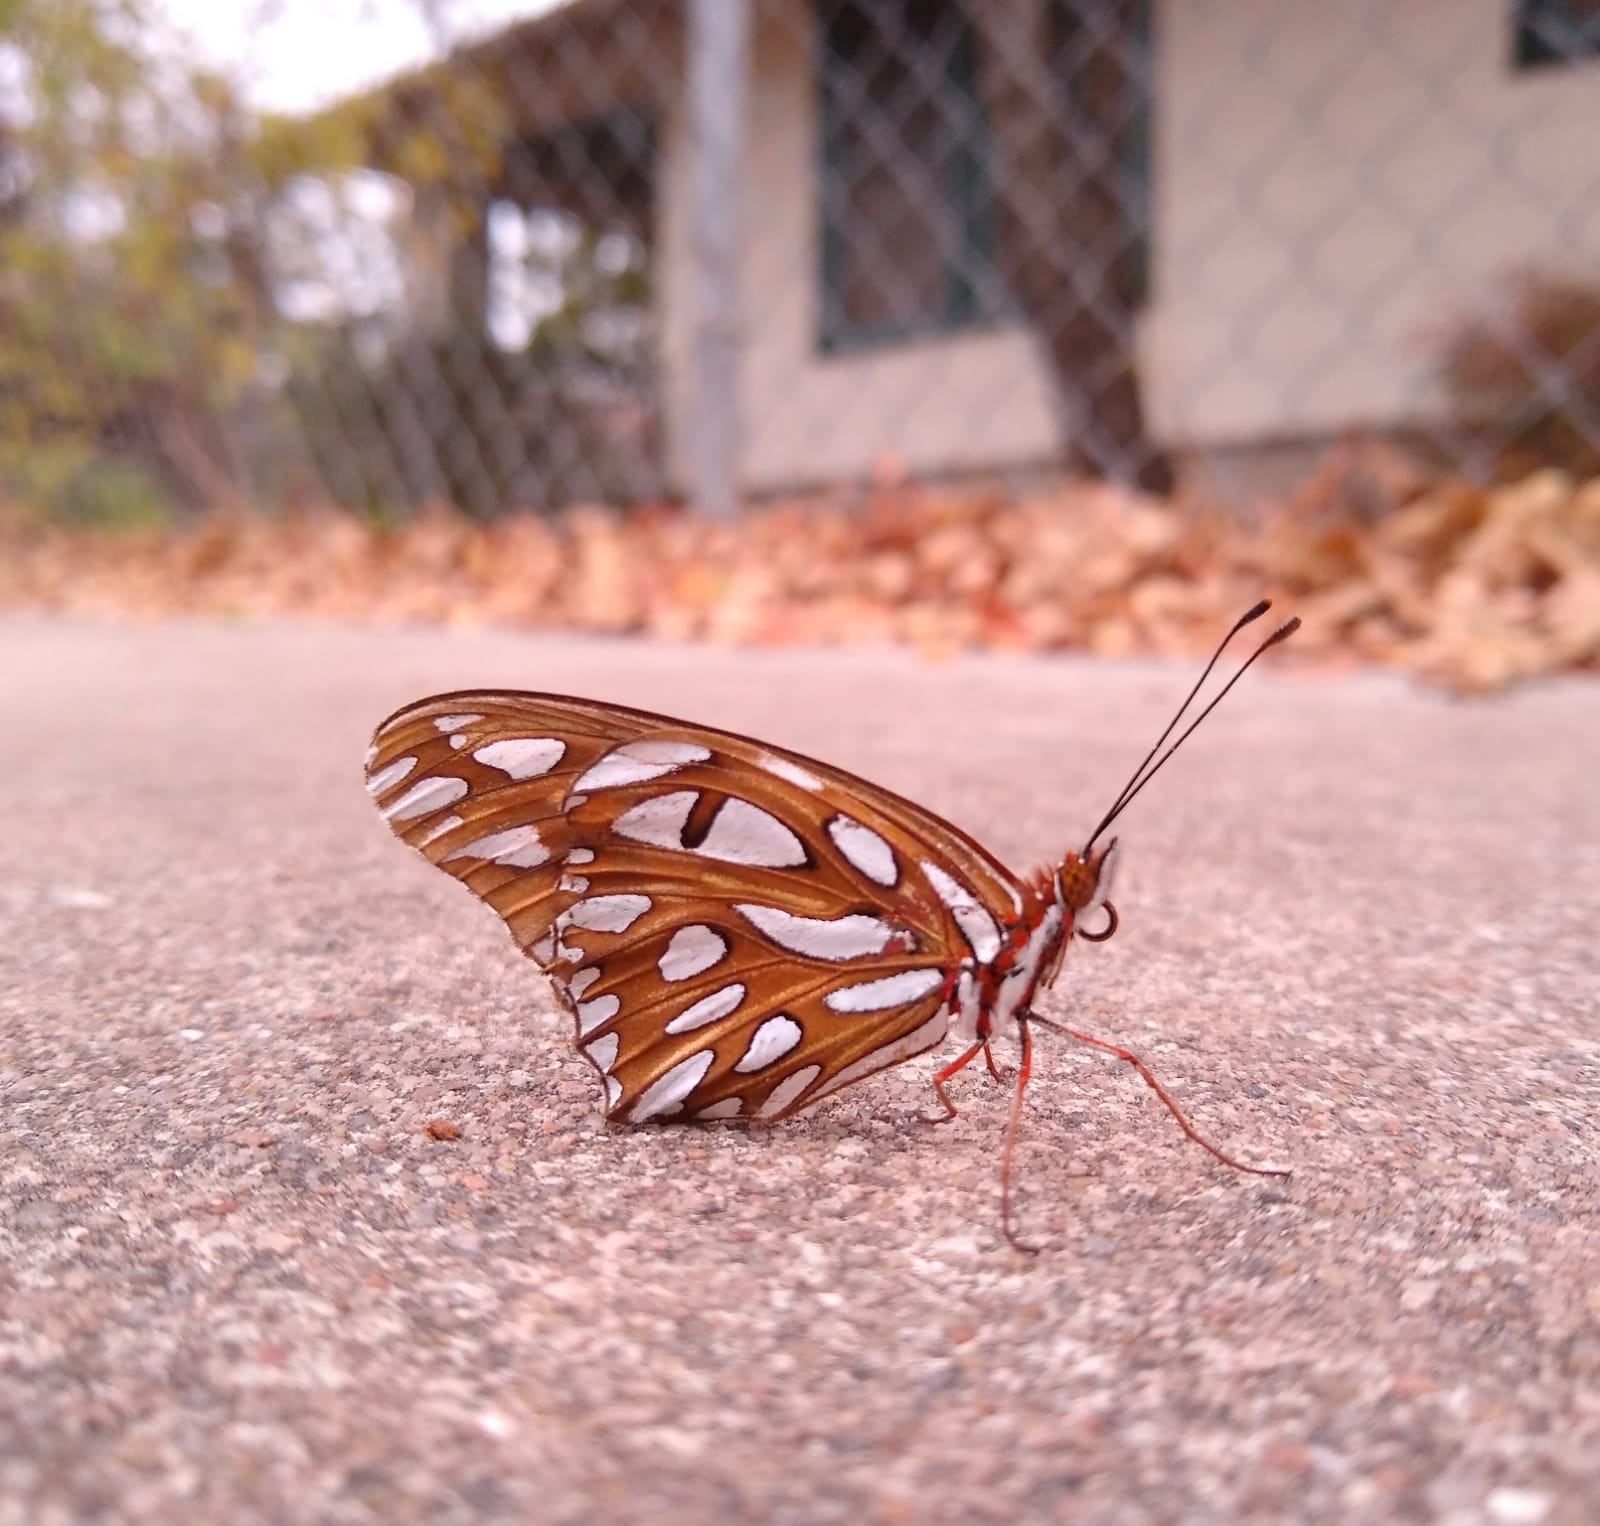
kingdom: Animalia
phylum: Arthropoda
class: Insecta
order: Lepidoptera
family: Nymphalidae
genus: Dione
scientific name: Dione vanillae
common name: Gulf fritillary
